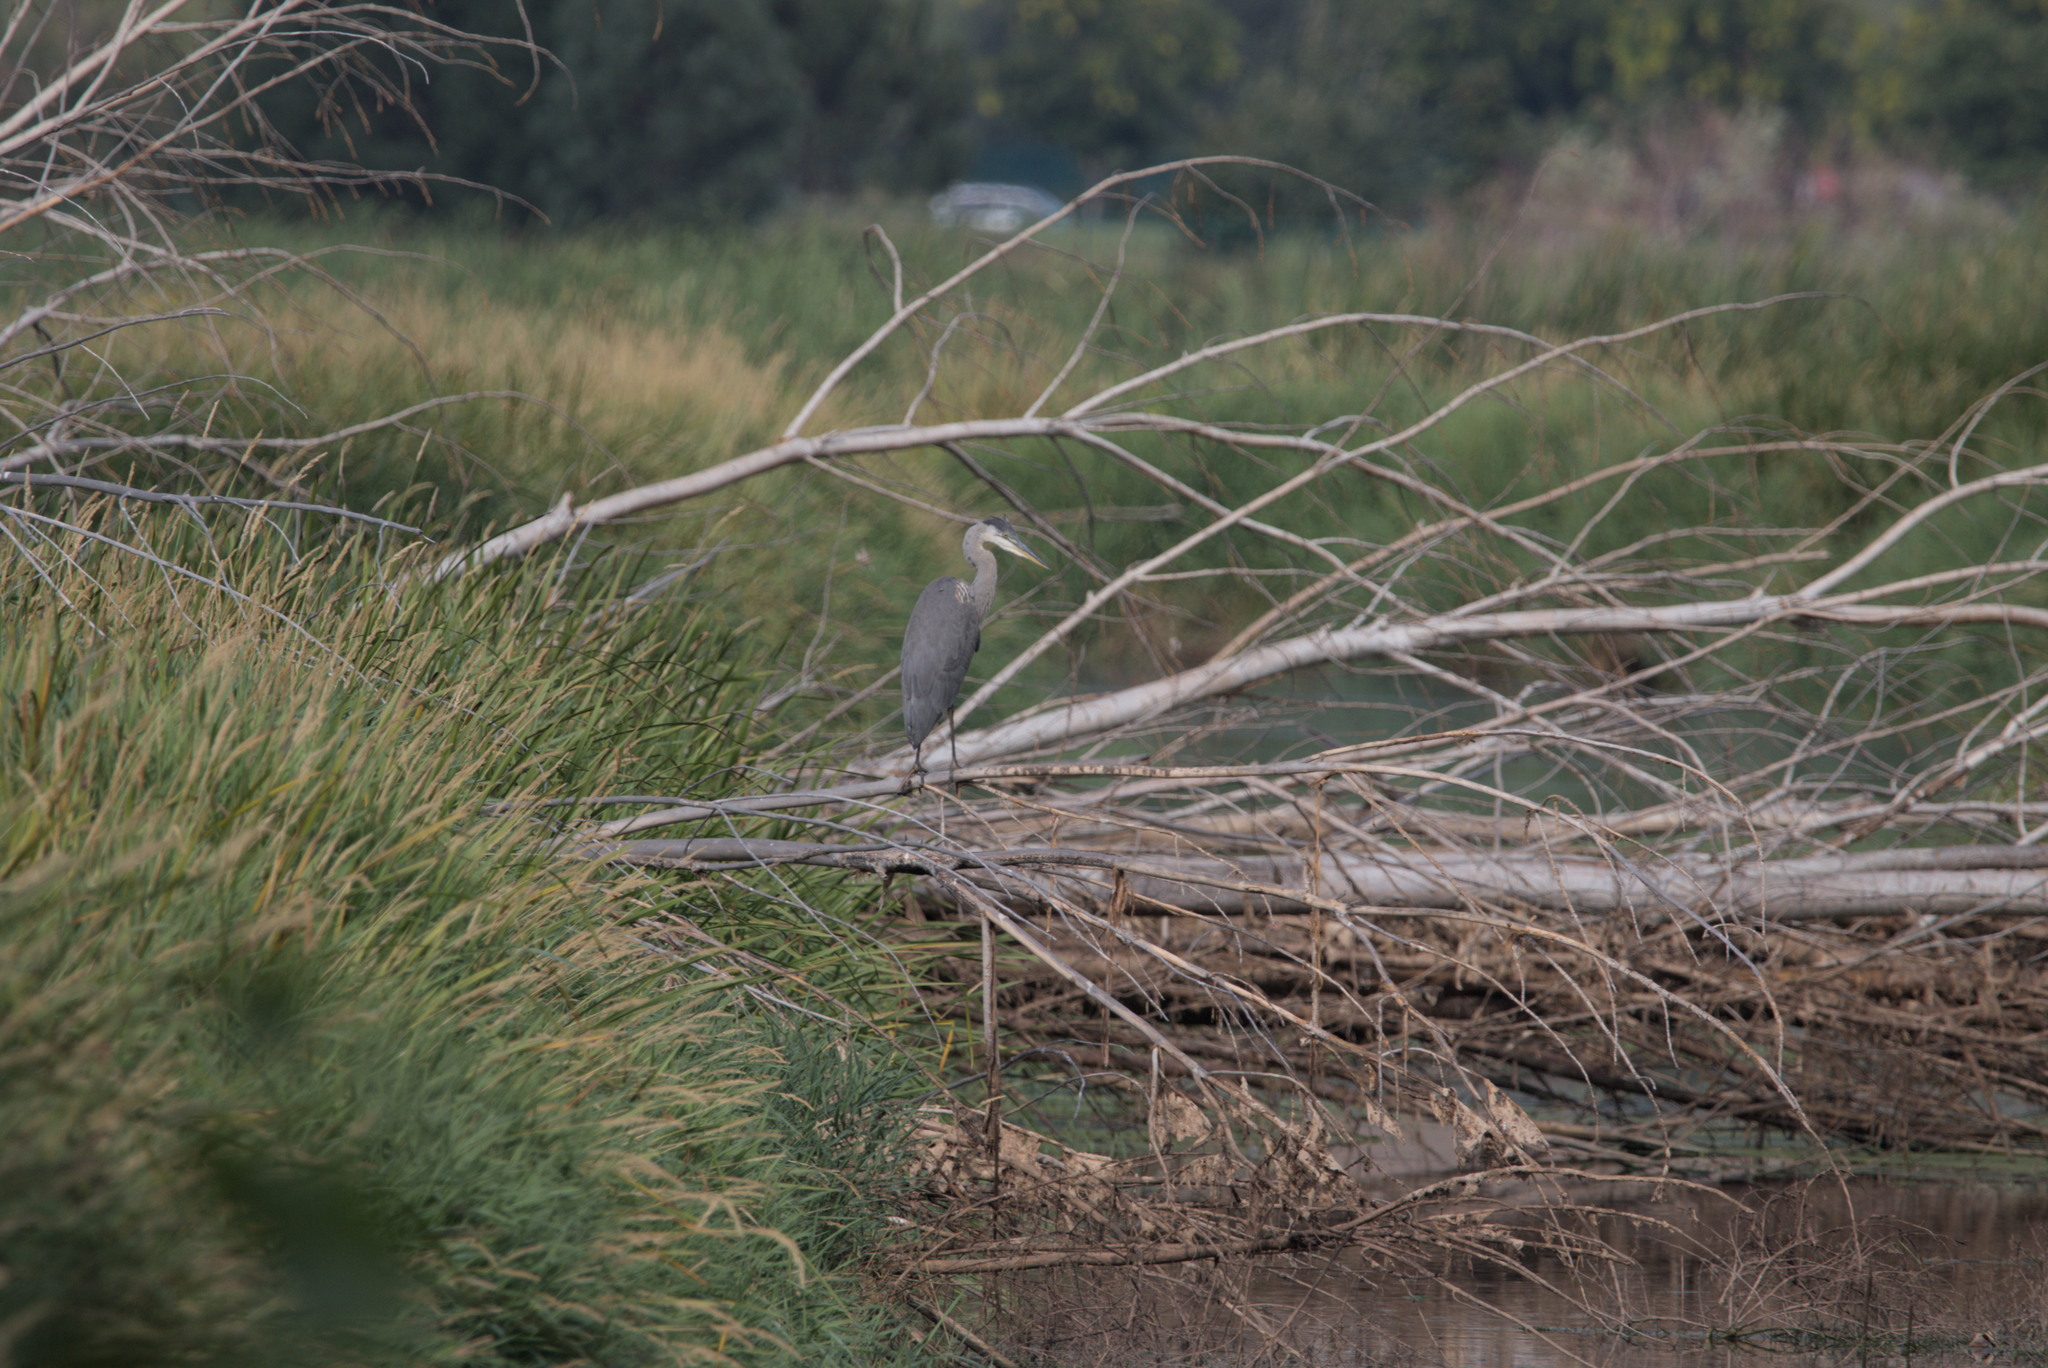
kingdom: Animalia
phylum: Chordata
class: Aves
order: Pelecaniformes
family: Ardeidae
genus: Ardea
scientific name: Ardea herodias
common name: Great blue heron
